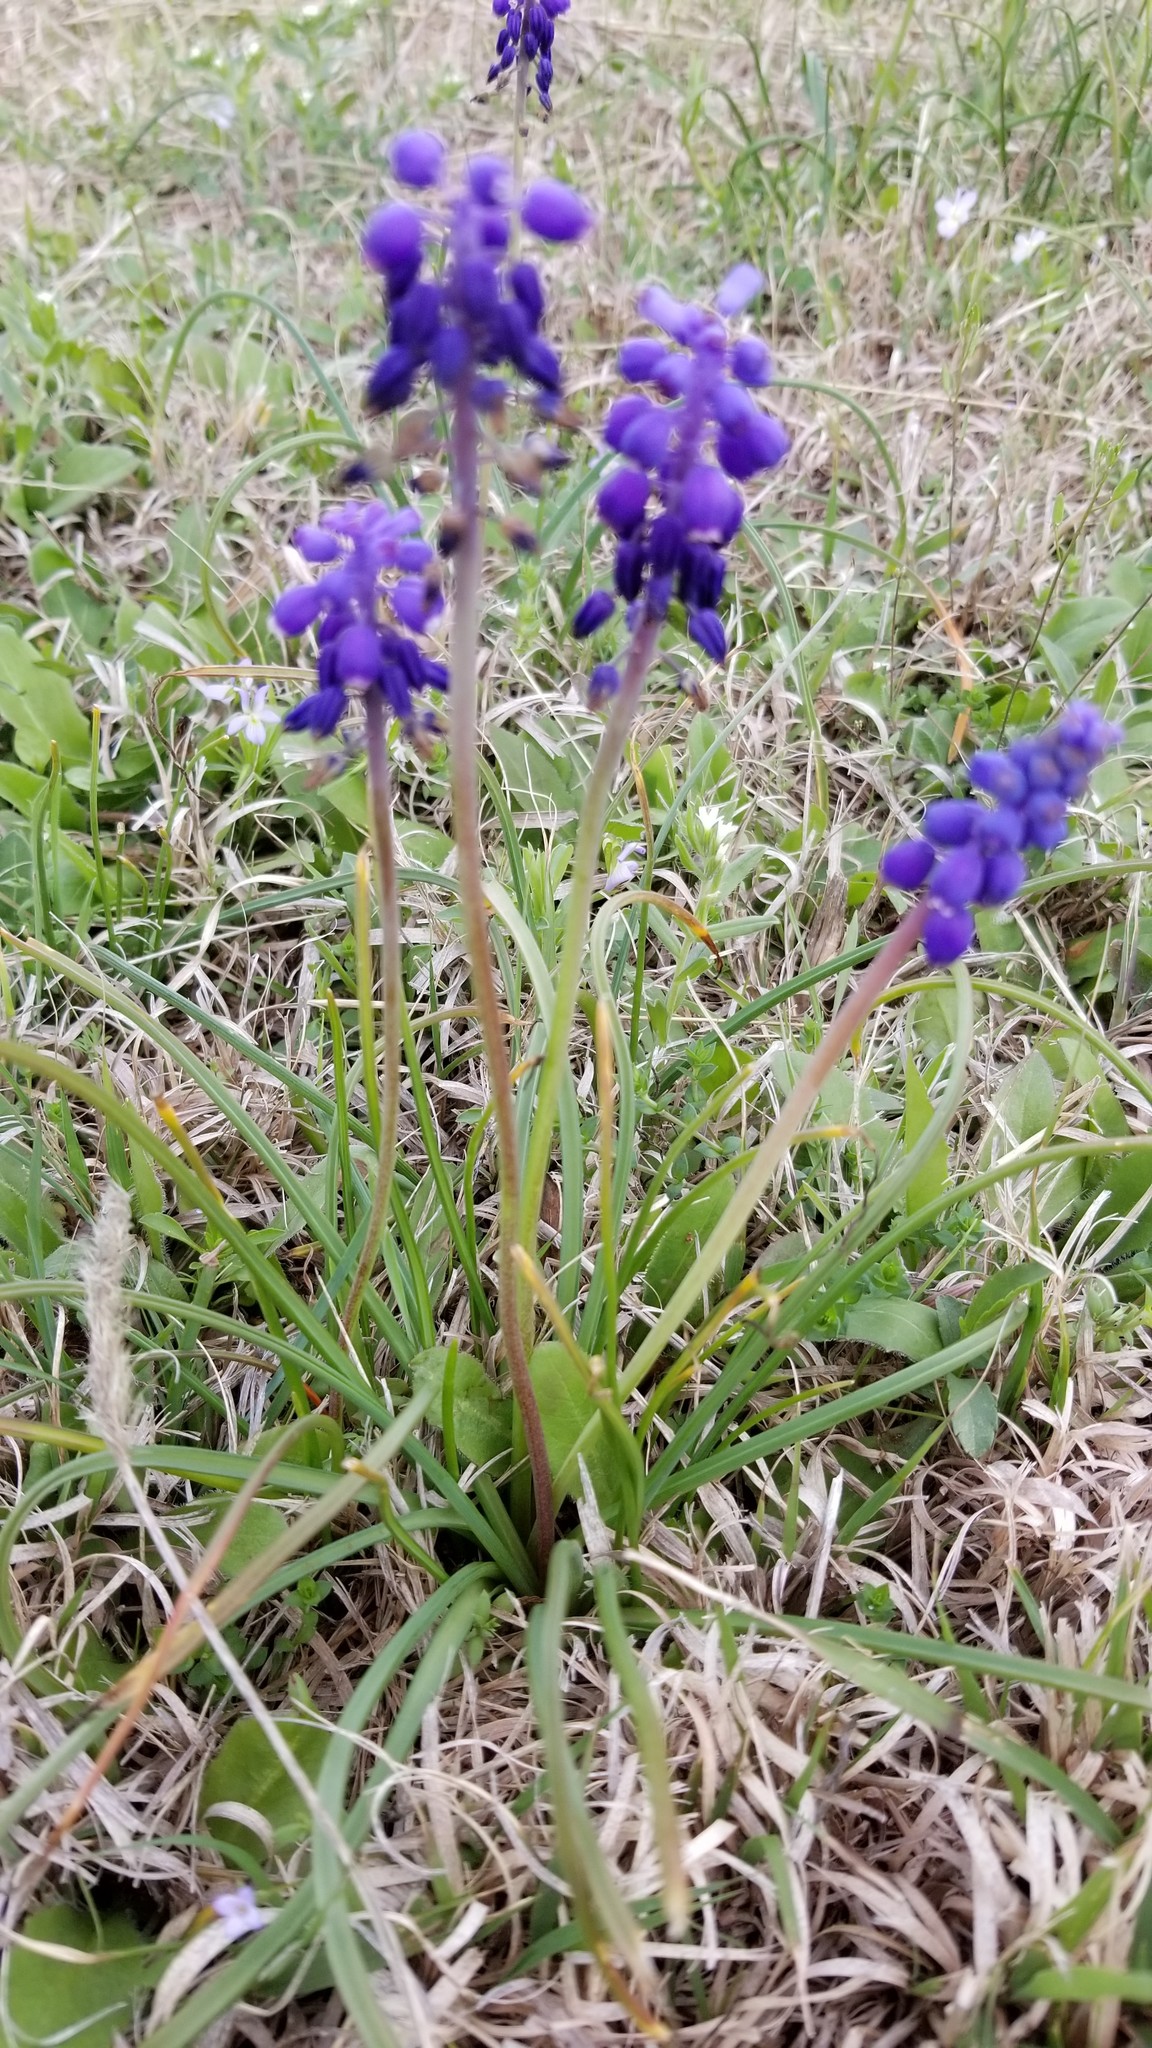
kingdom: Plantae
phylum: Tracheophyta
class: Liliopsida
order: Asparagales
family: Asparagaceae
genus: Muscari
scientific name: Muscari botryoides
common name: Compact grape-hyacinth
